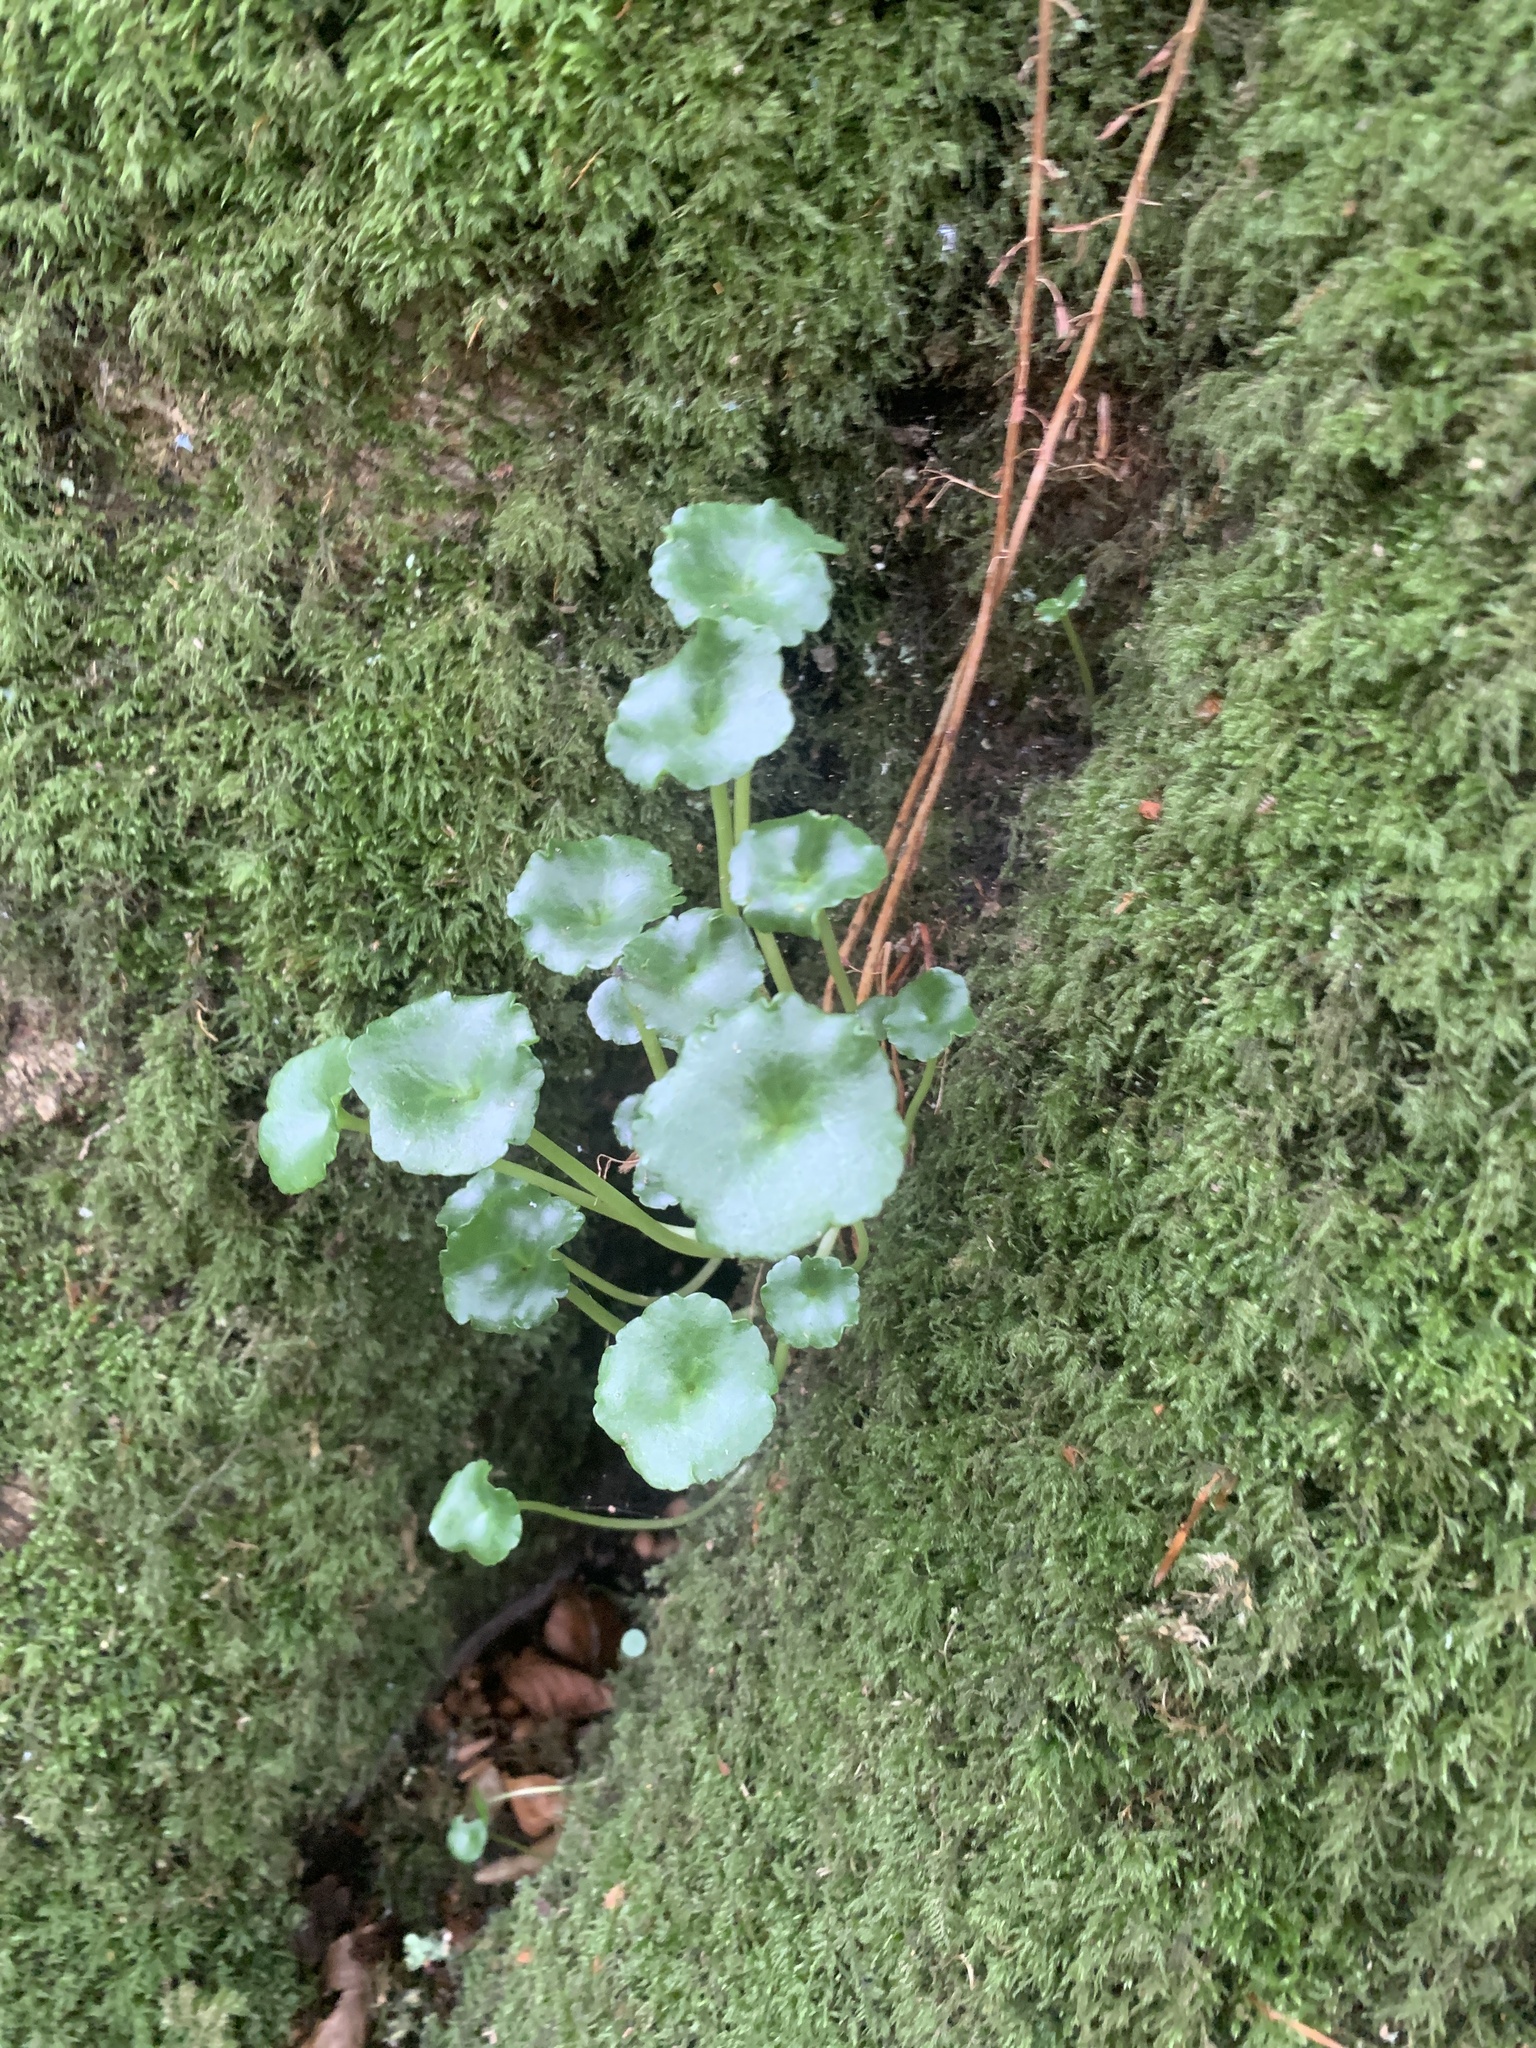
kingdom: Plantae
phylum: Tracheophyta
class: Magnoliopsida
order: Saxifragales
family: Crassulaceae
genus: Umbilicus
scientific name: Umbilicus rupestris
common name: Navelwort
